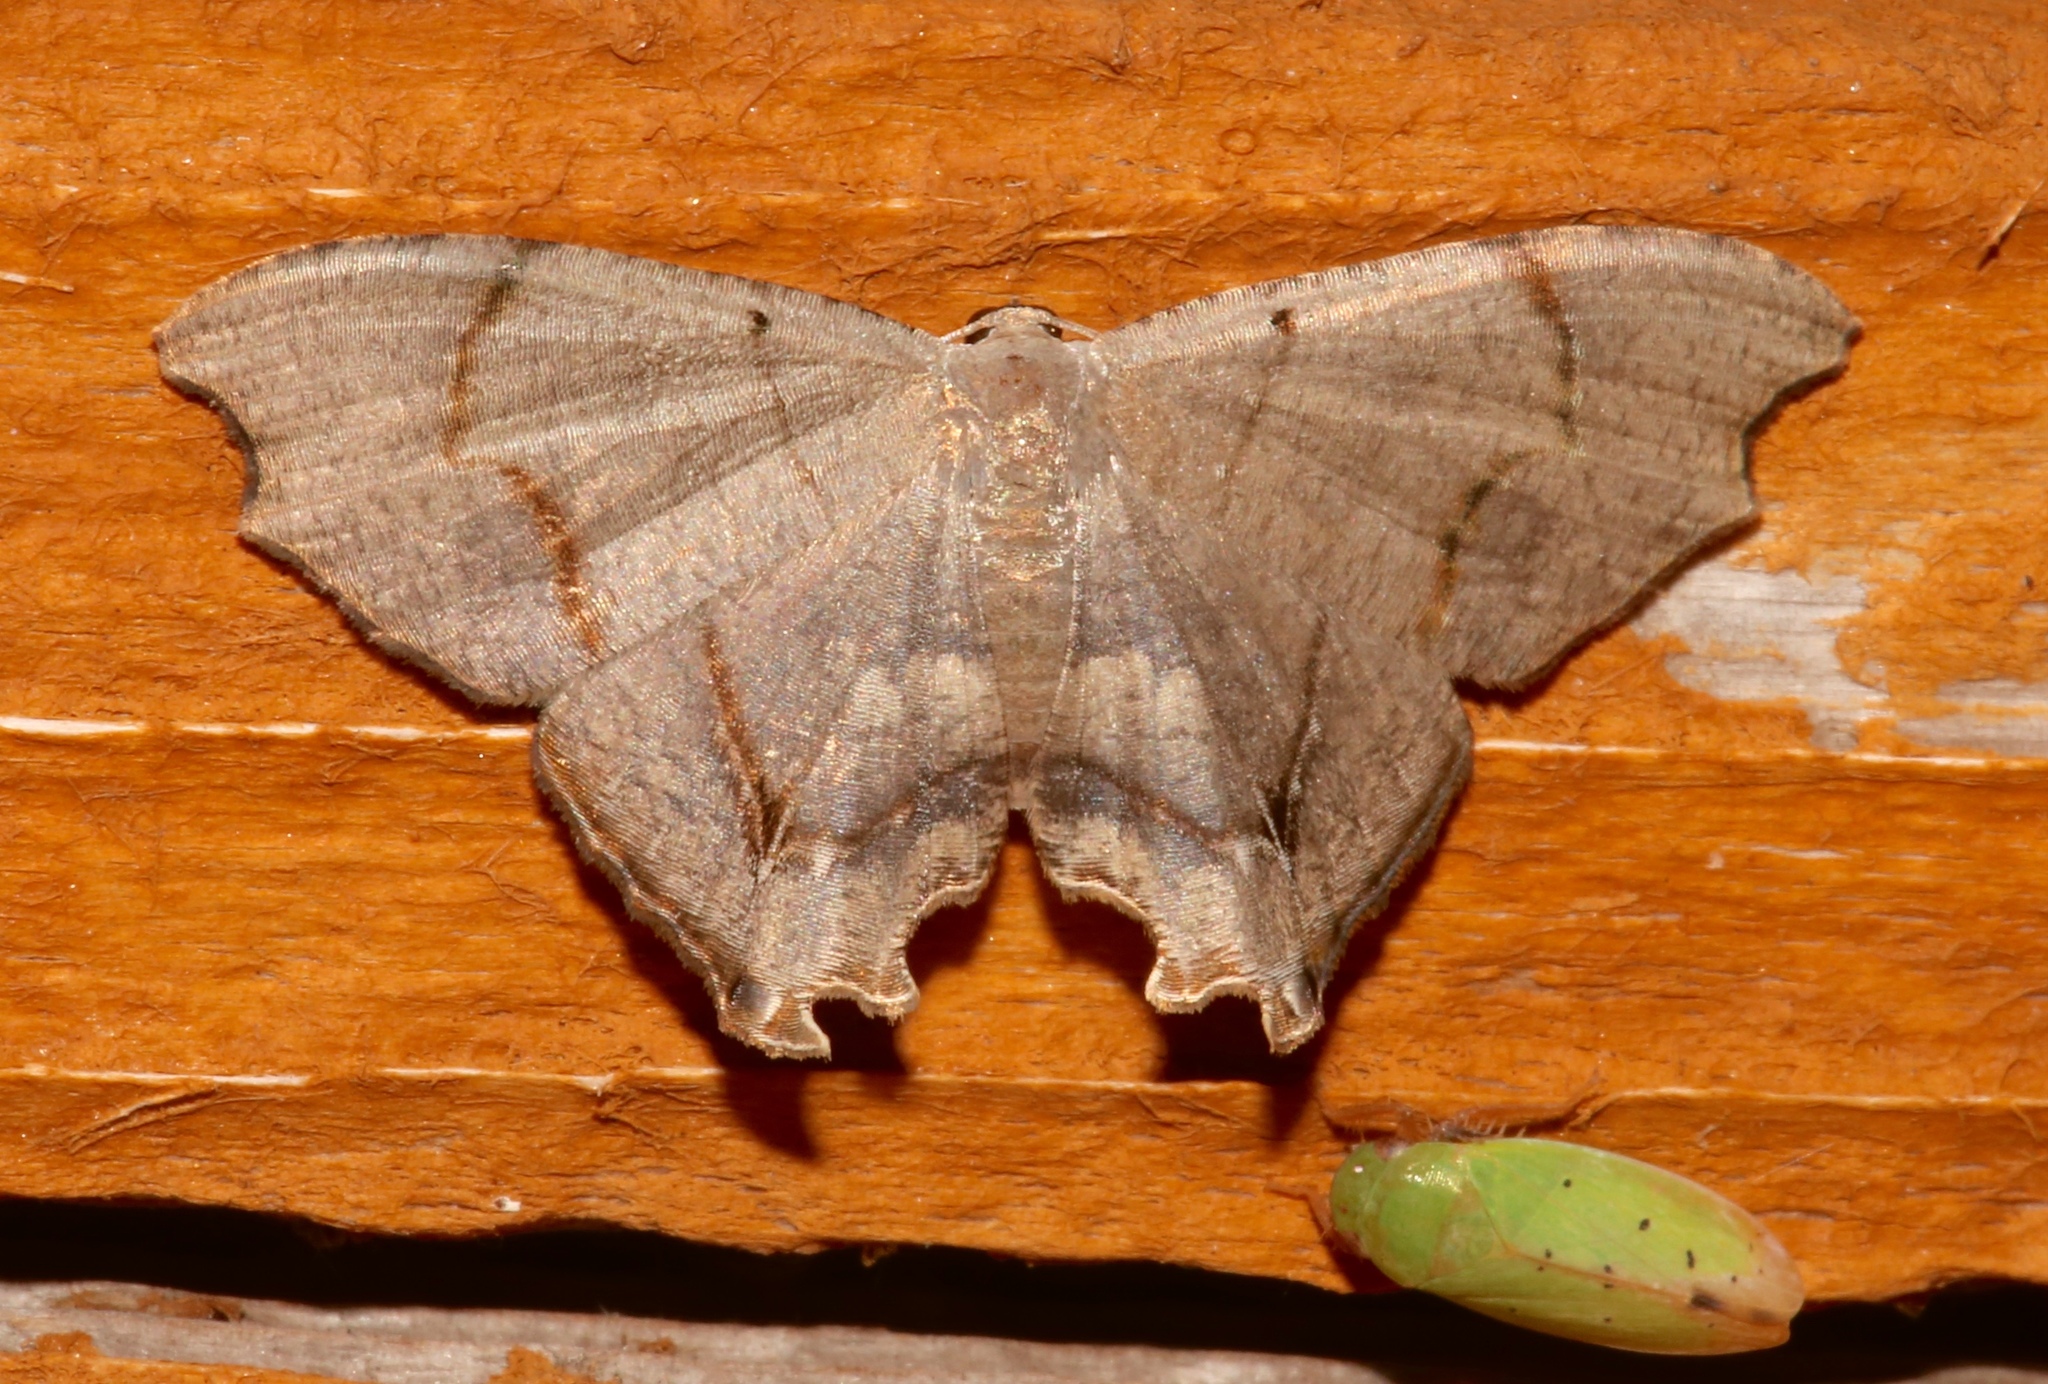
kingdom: Animalia
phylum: Arthropoda
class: Insecta
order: Lepidoptera
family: Uraniidae
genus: Trotorhombia
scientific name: Trotorhombia metachromata
